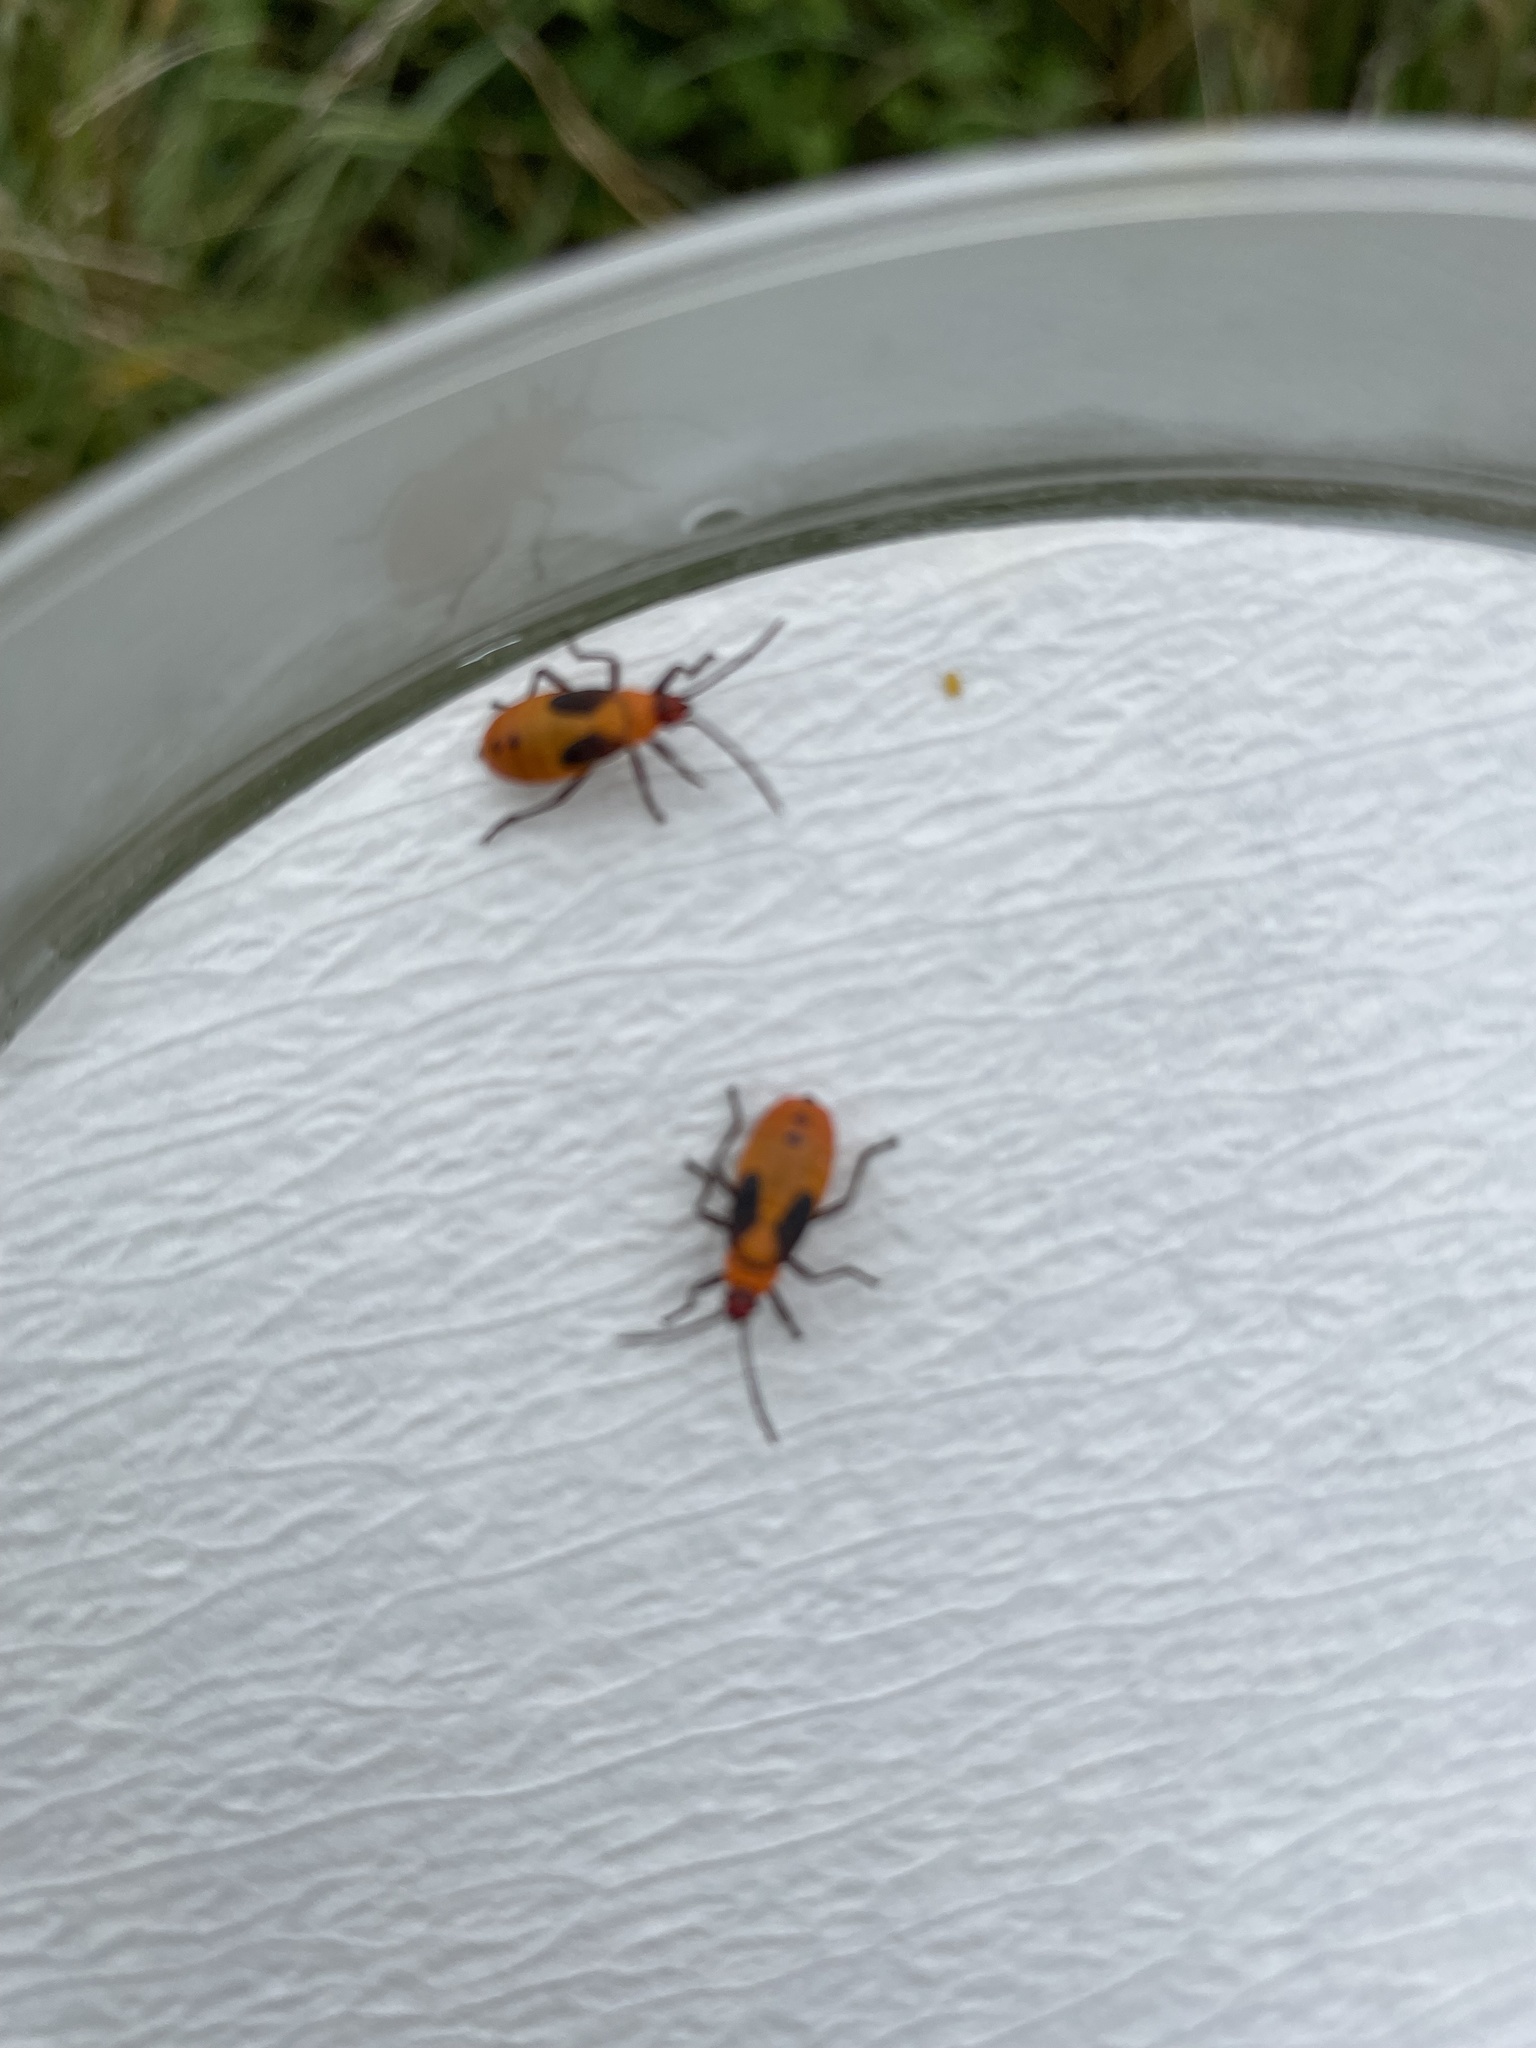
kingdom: Animalia
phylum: Arthropoda
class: Insecta
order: Hemiptera
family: Lygaeidae
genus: Oncopeltus
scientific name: Oncopeltus fasciatus
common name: Large milkweed bug
